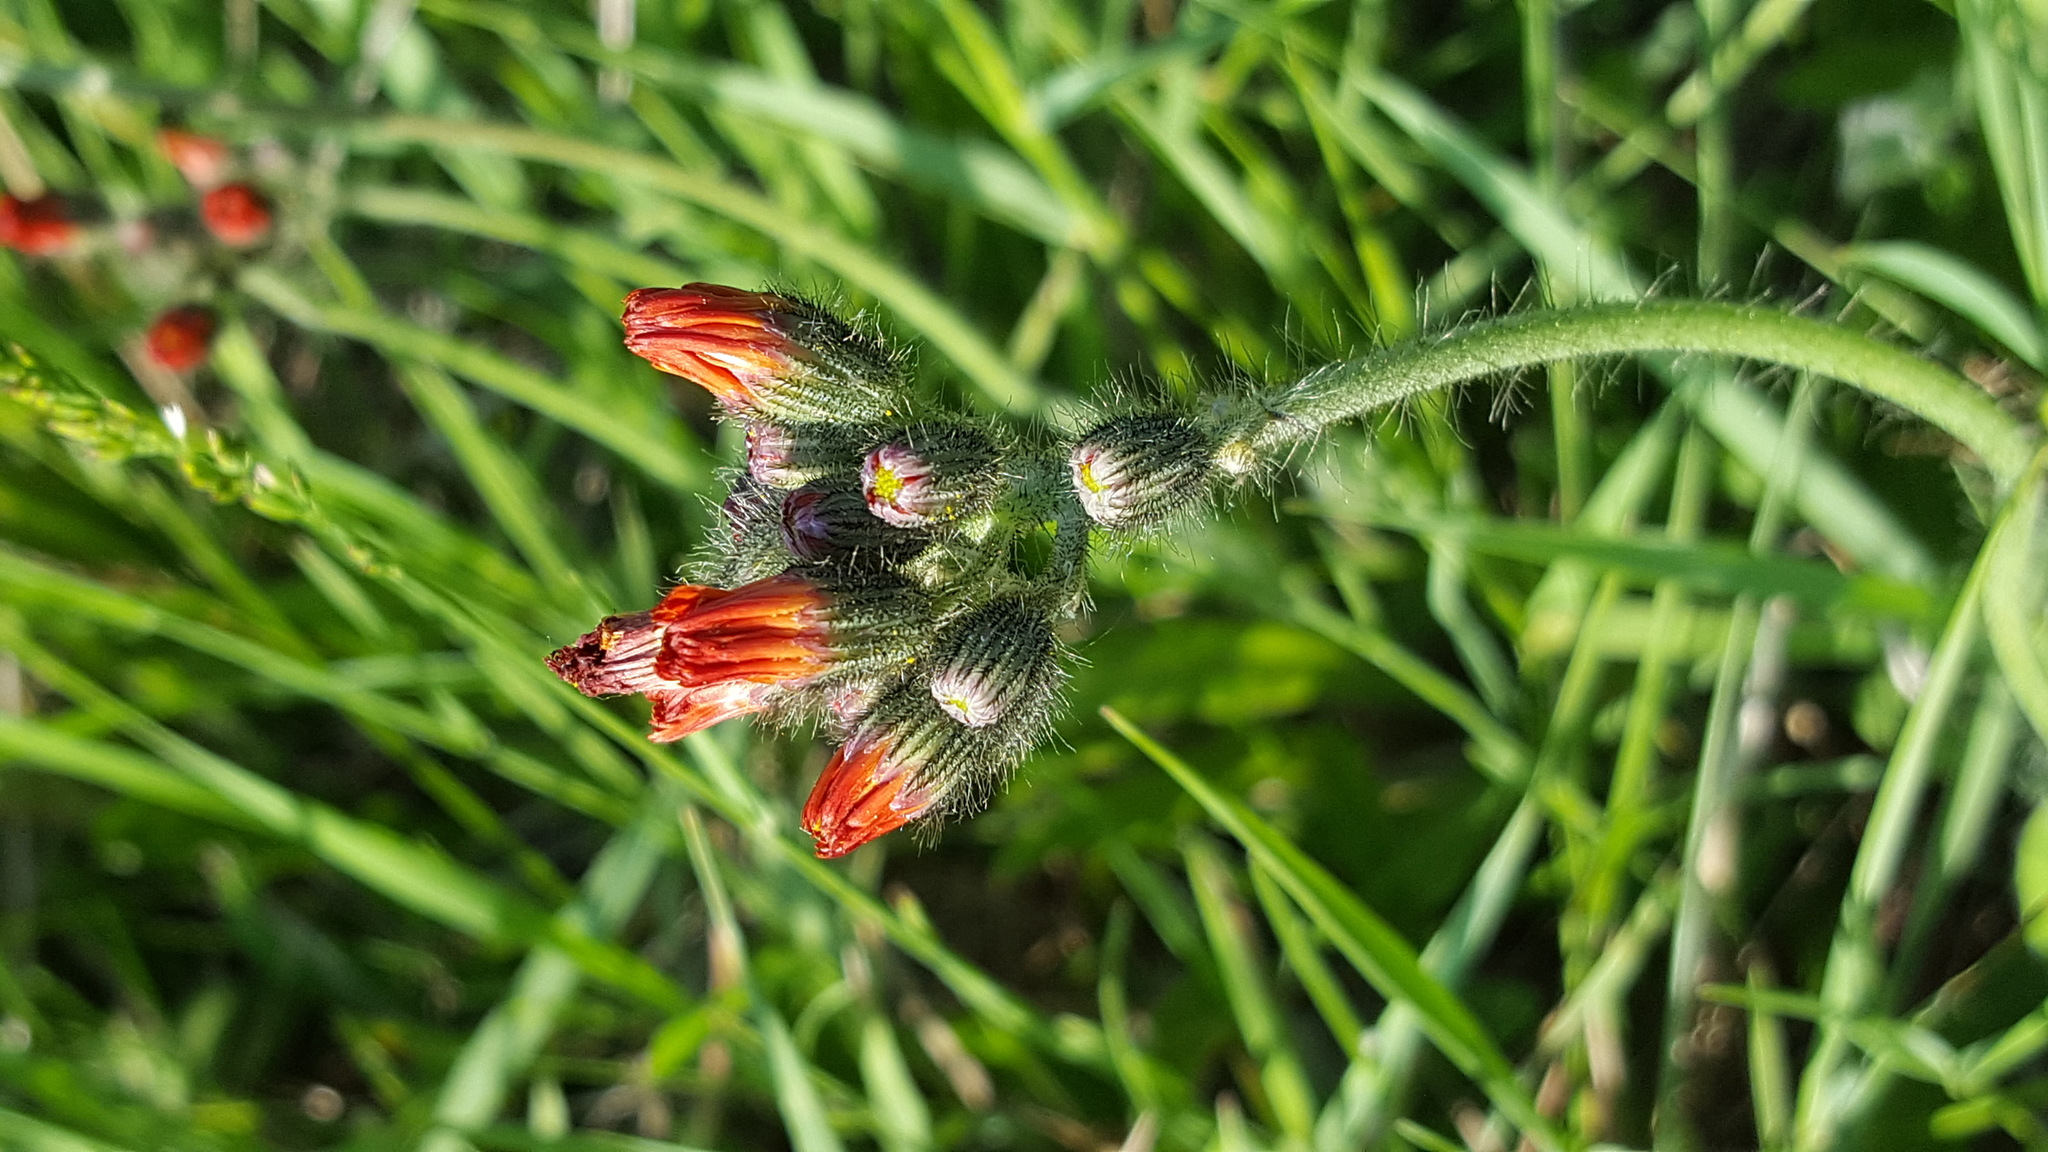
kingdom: Plantae
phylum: Tracheophyta
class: Magnoliopsida
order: Asterales
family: Asteraceae
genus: Pilosella
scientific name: Pilosella aurantiaca
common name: Fox-and-cubs
